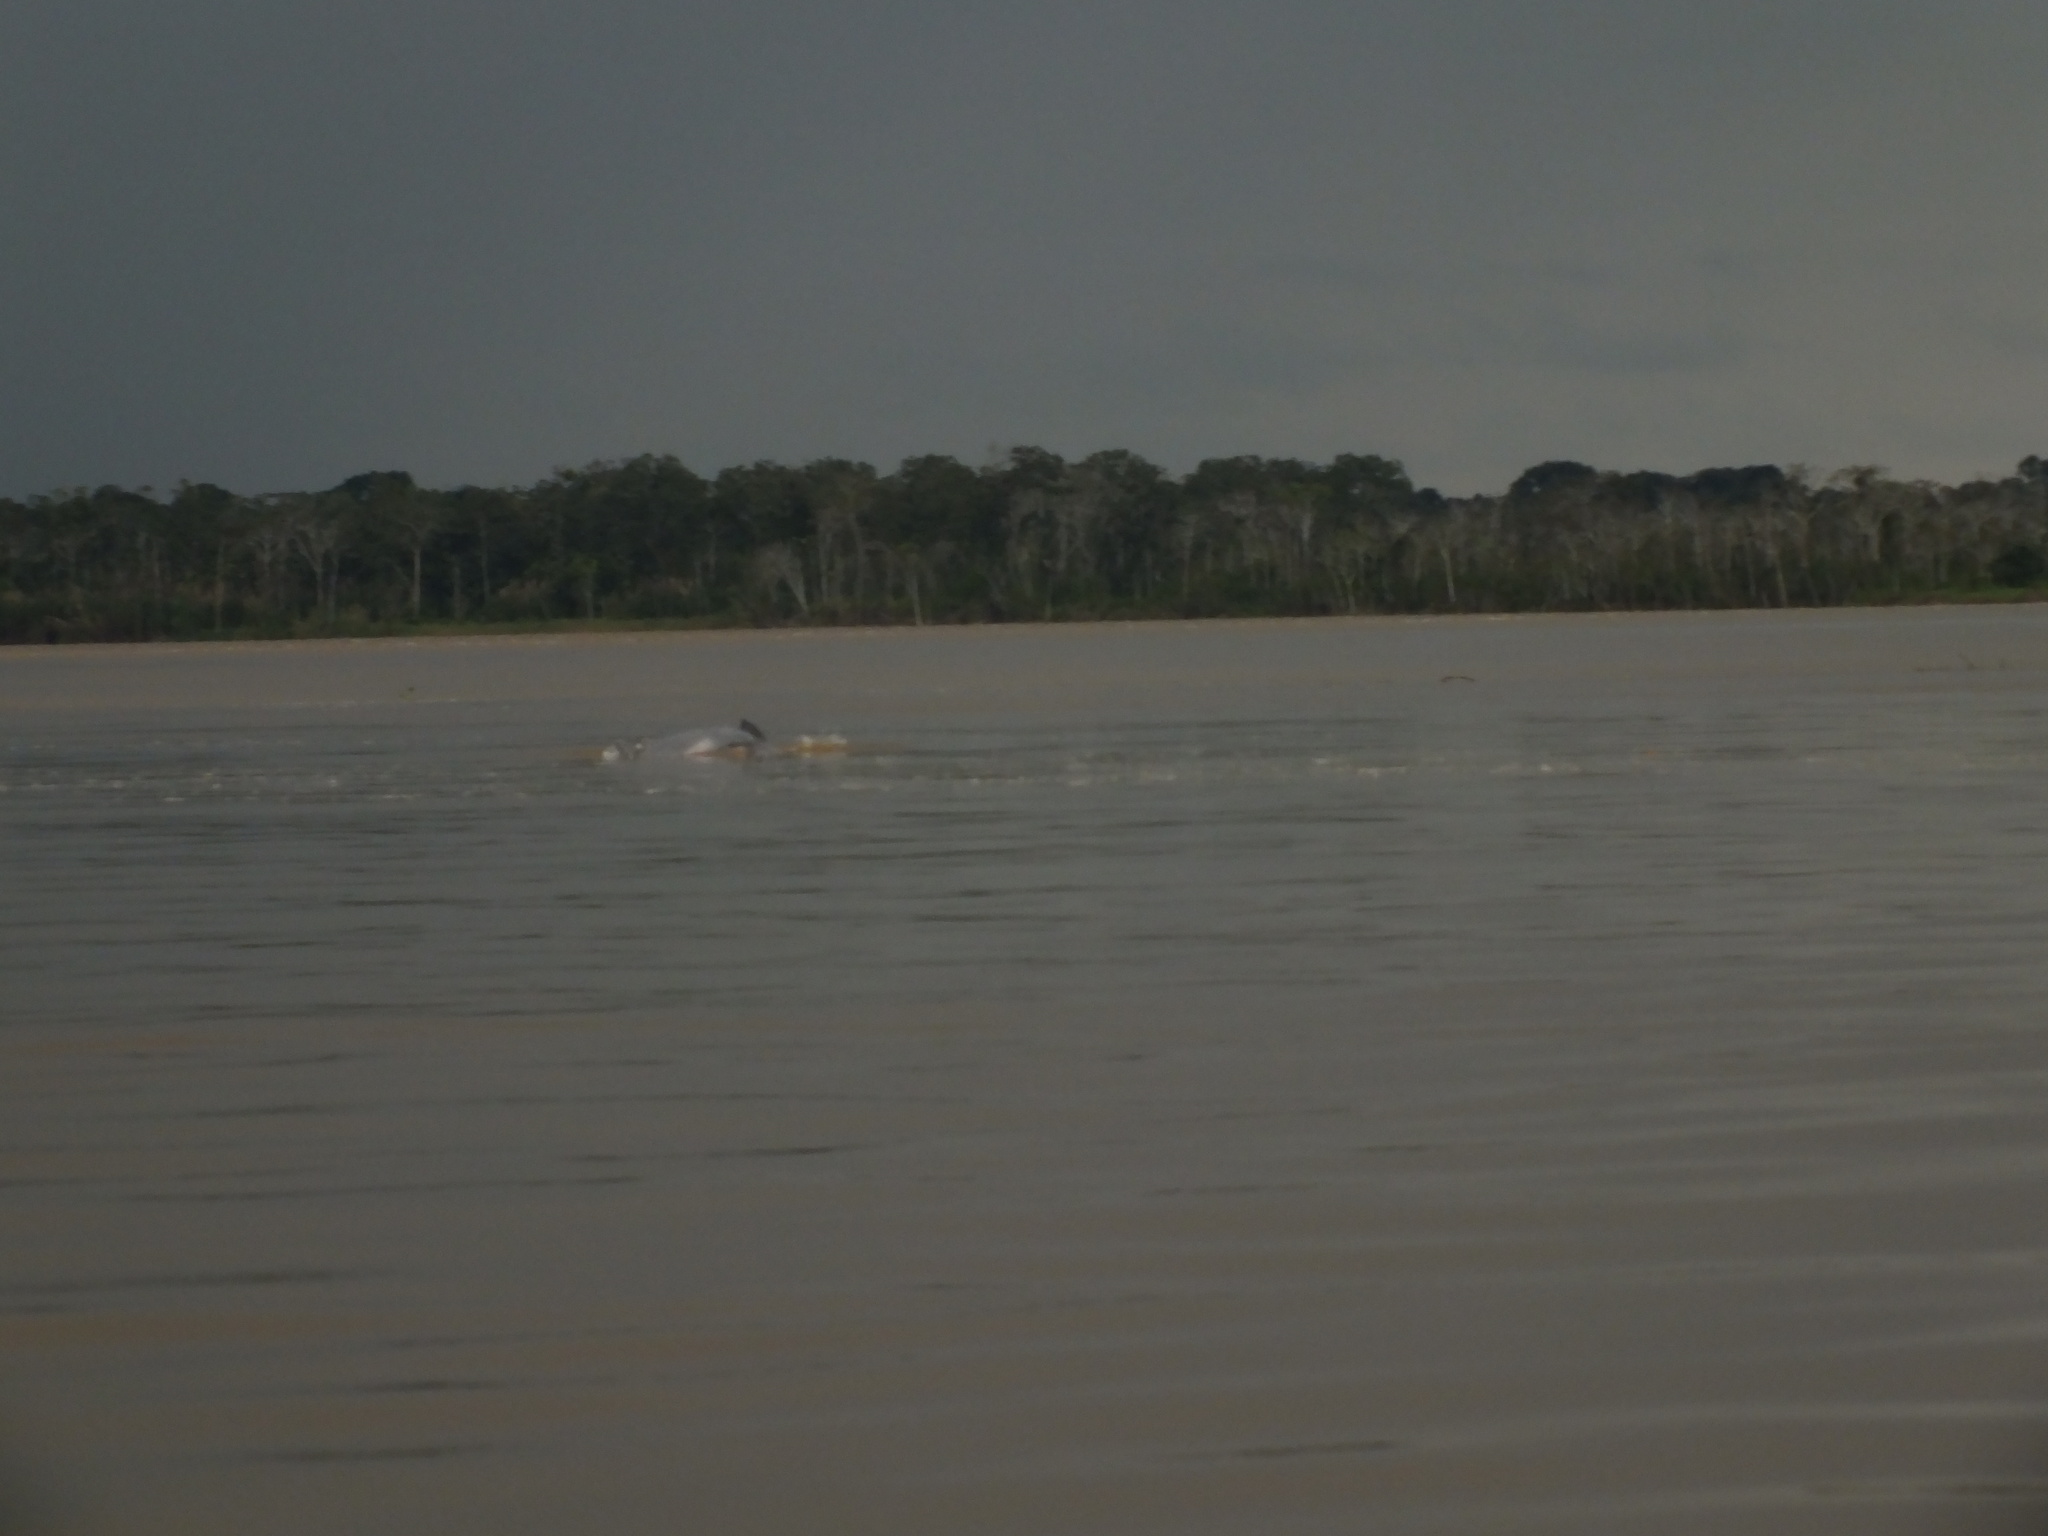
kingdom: Animalia
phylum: Chordata
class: Mammalia
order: Cetacea
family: Delphinidae
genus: Sotalia
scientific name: Sotalia fluviatilis
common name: Tucuxi
